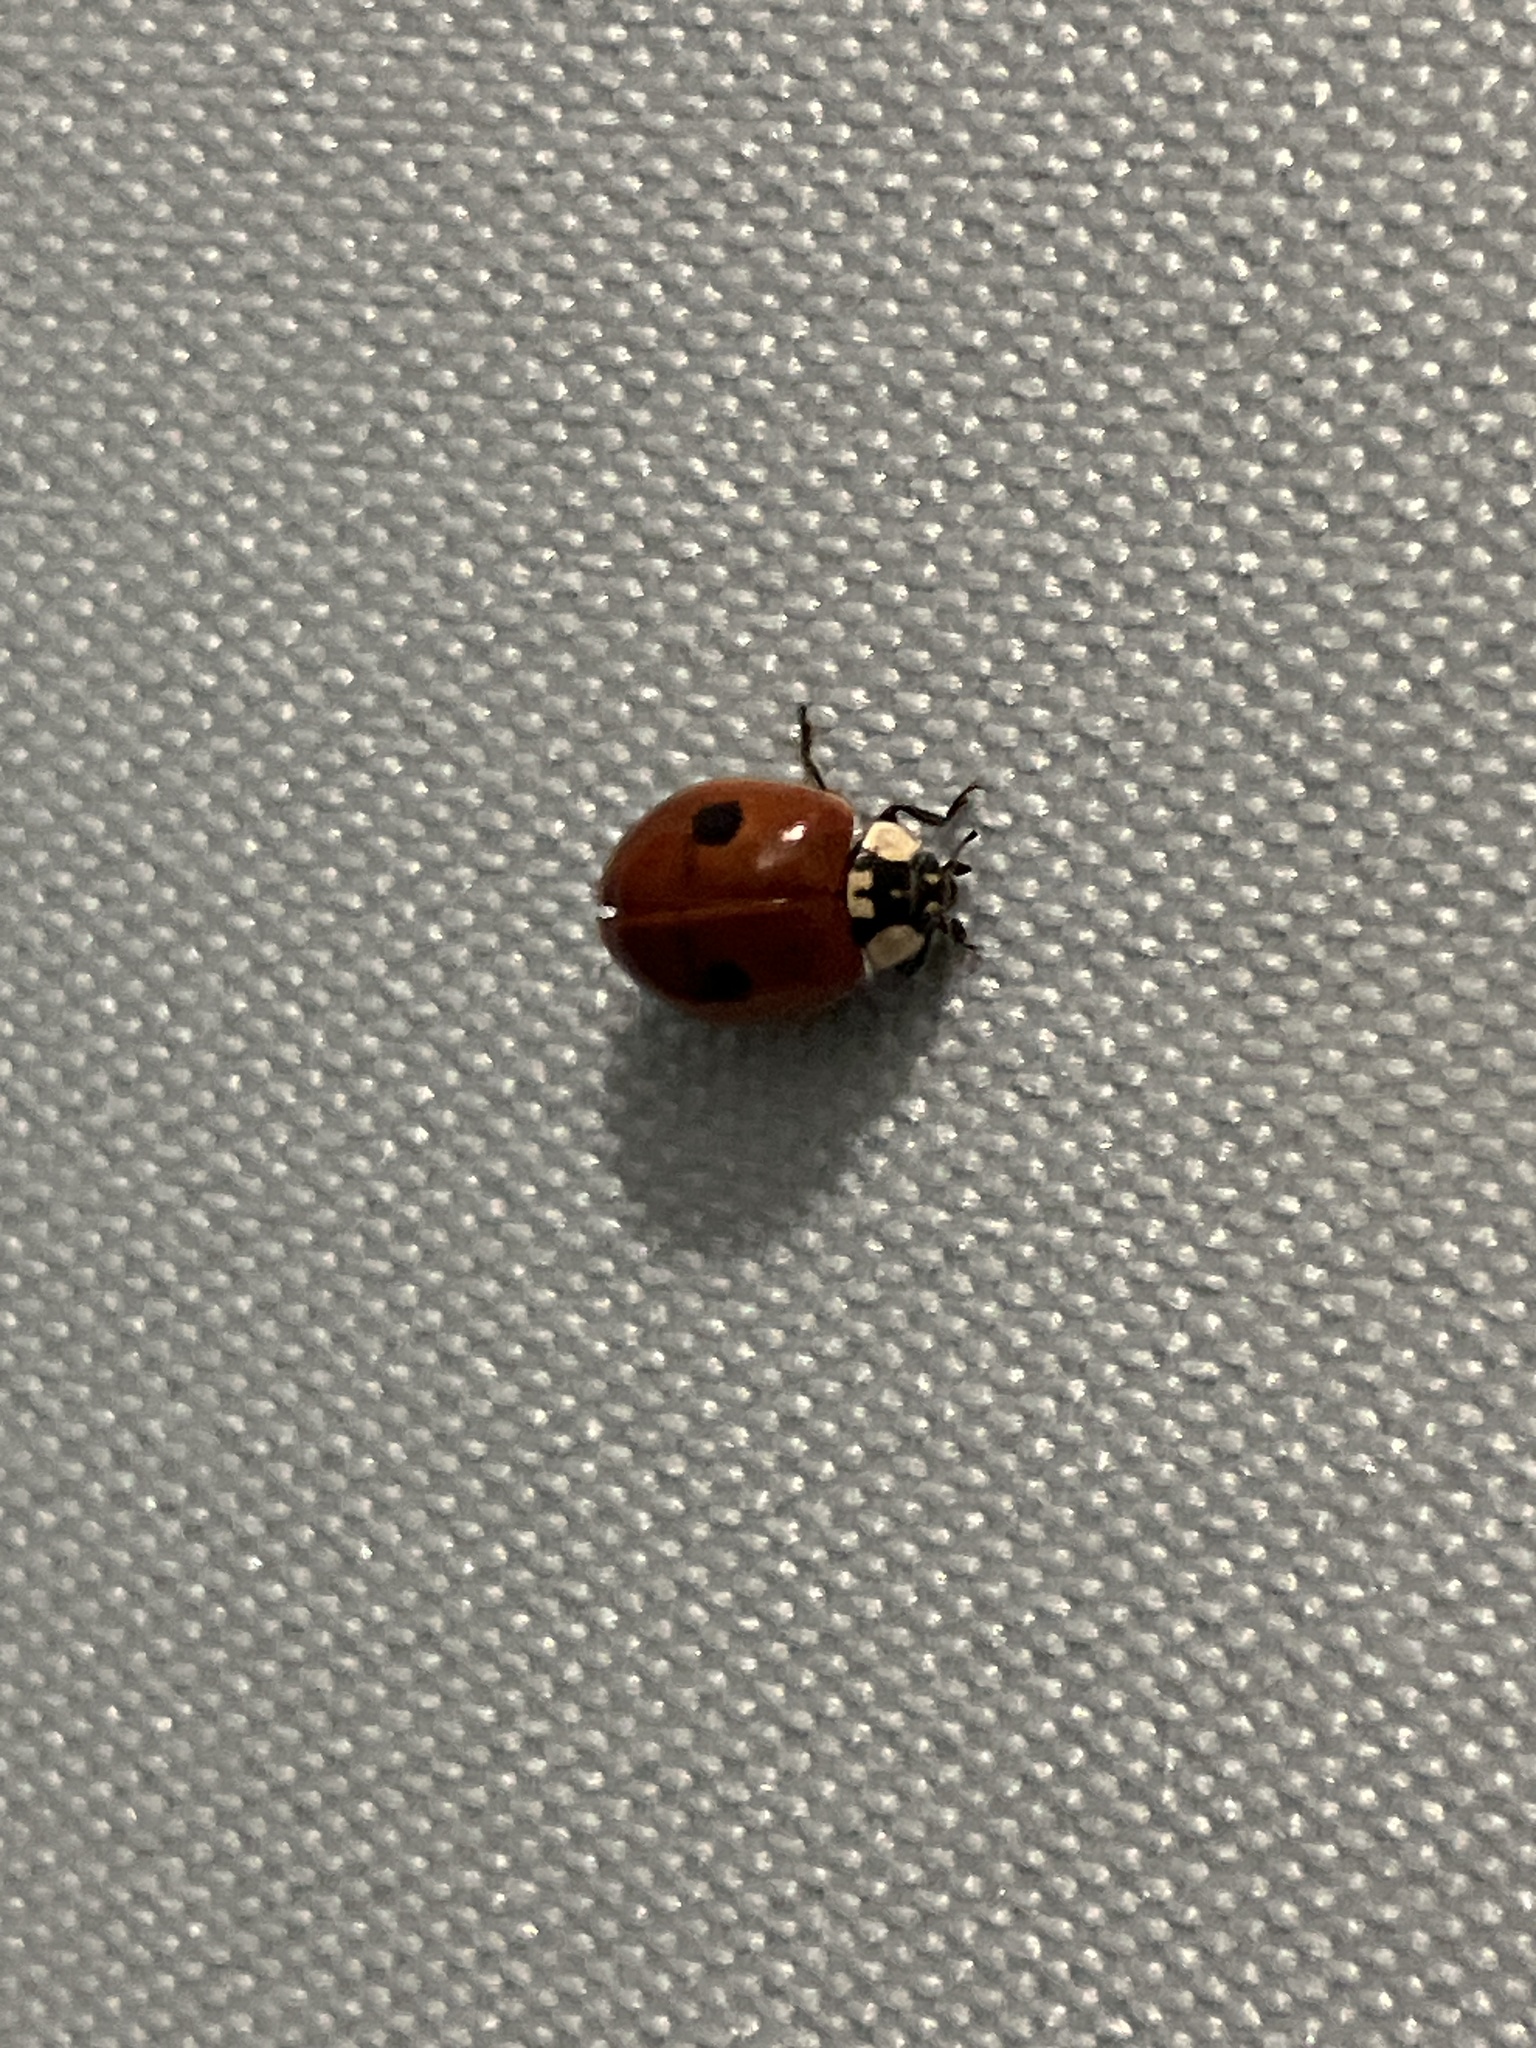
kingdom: Animalia
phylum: Arthropoda
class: Insecta
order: Coleoptera
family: Coccinellidae
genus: Adalia
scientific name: Adalia bipunctata
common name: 2-spot ladybird
